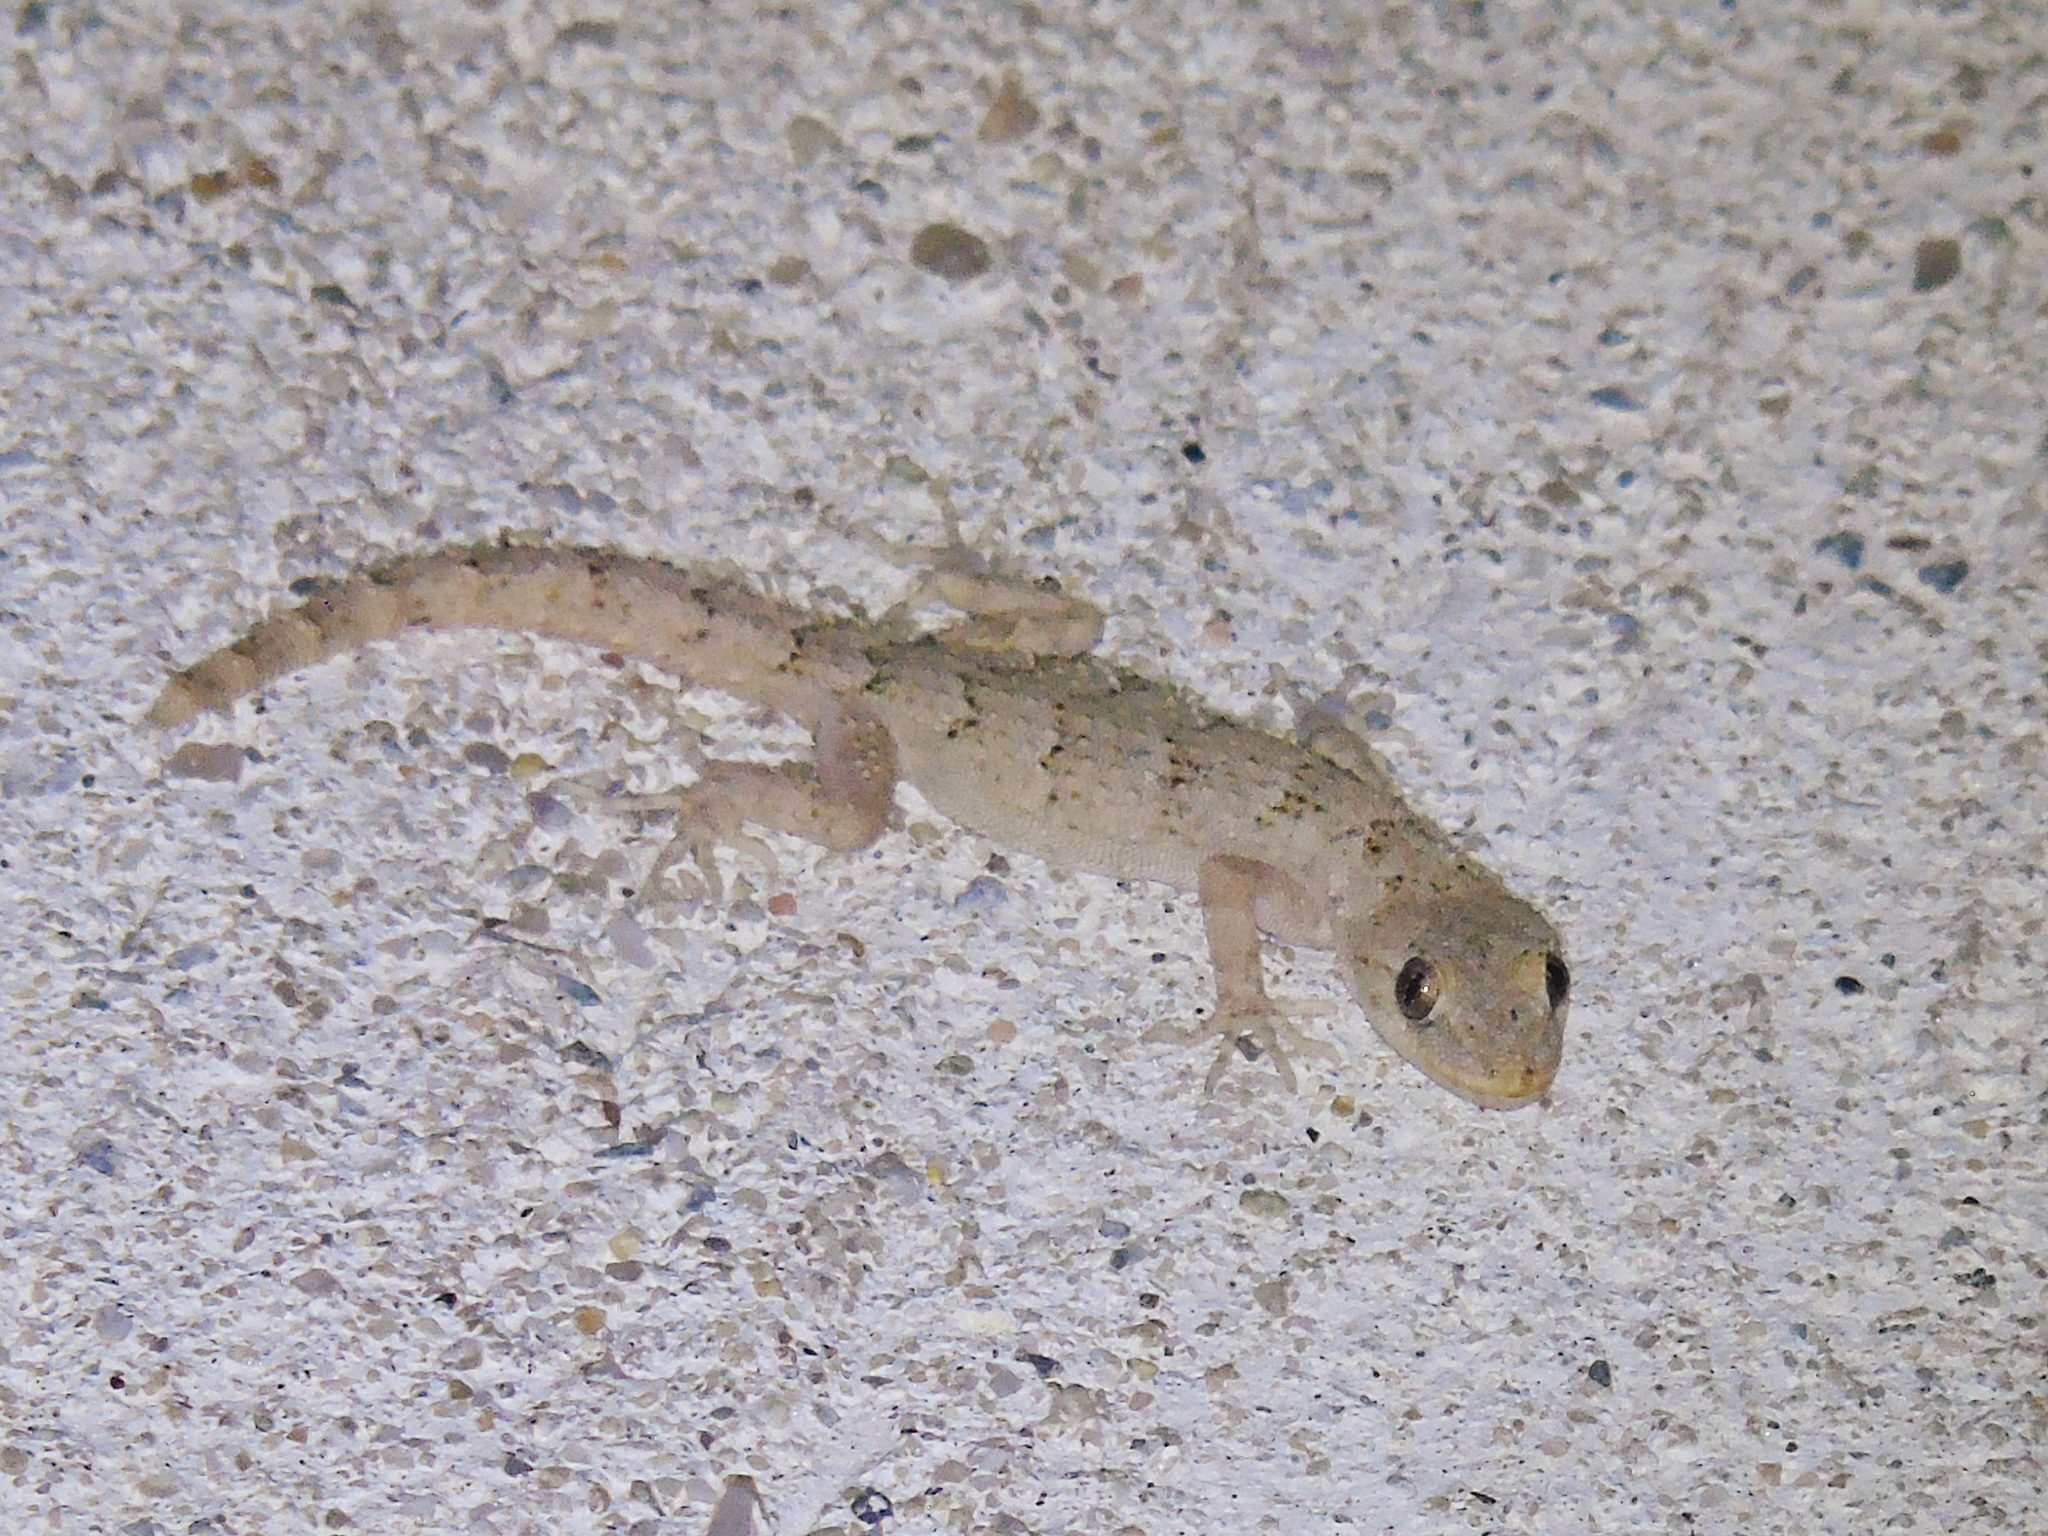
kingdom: Animalia
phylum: Chordata
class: Squamata
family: Gekkonidae
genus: Mediodactylus
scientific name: Mediodactylus danilewskii
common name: Bulgarian bent-toed gecko
